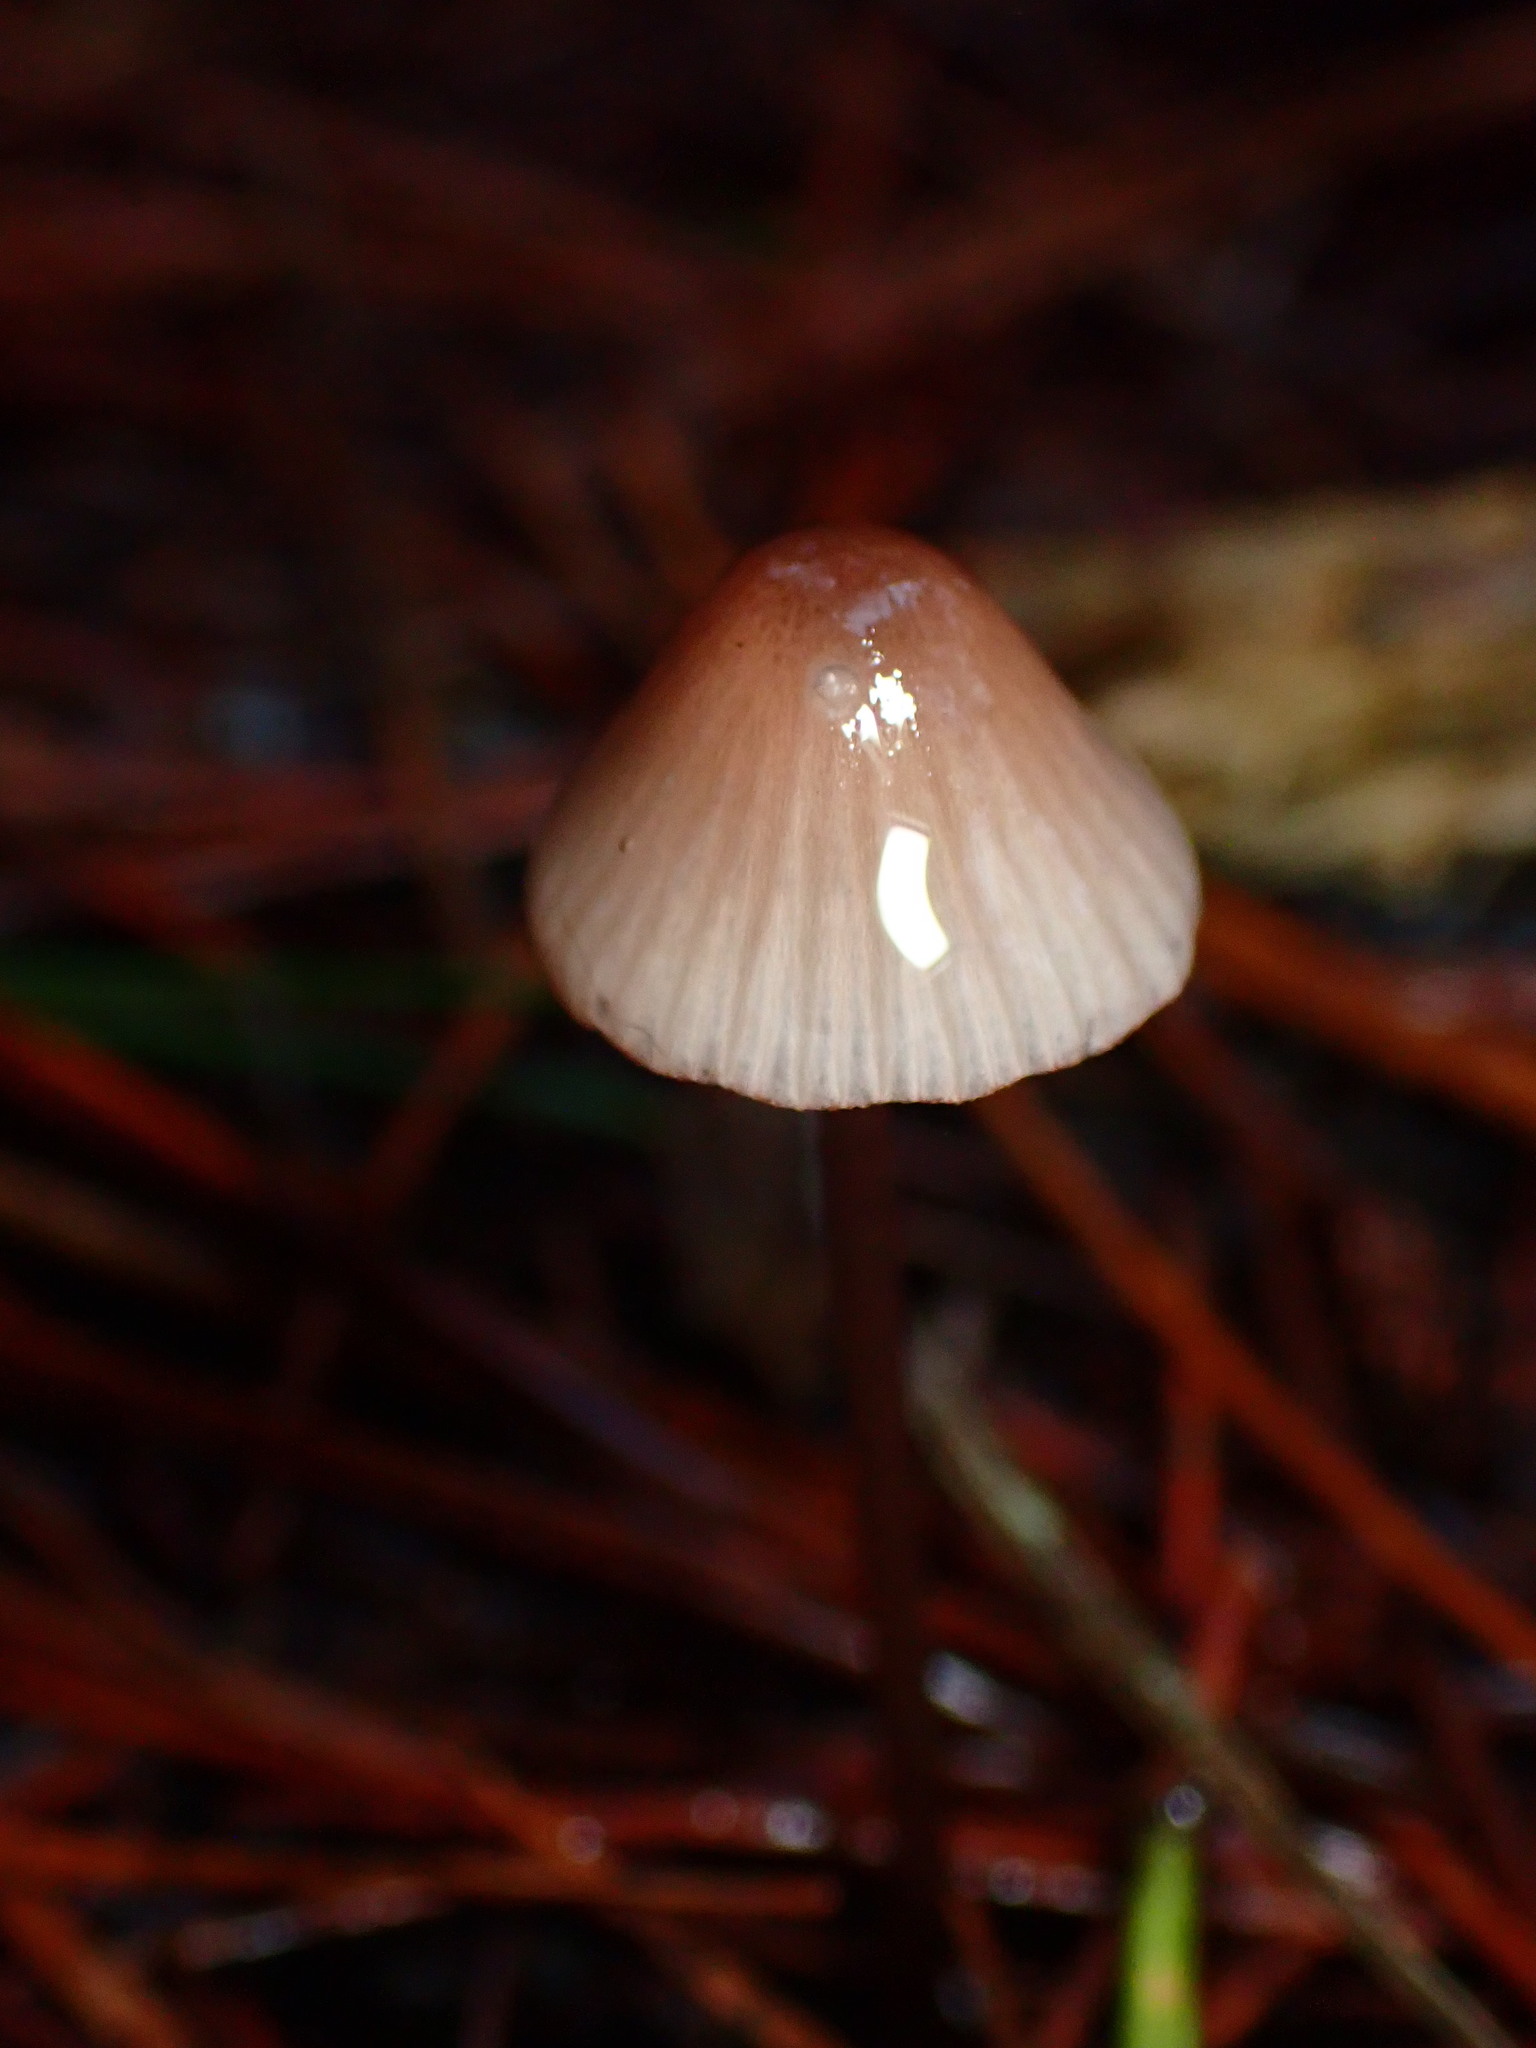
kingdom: Fungi
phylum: Basidiomycota
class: Agaricomycetes
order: Agaricales
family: Mycenaceae
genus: Mycena
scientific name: Mycena purpureofusca
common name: Purple edge bonnet
